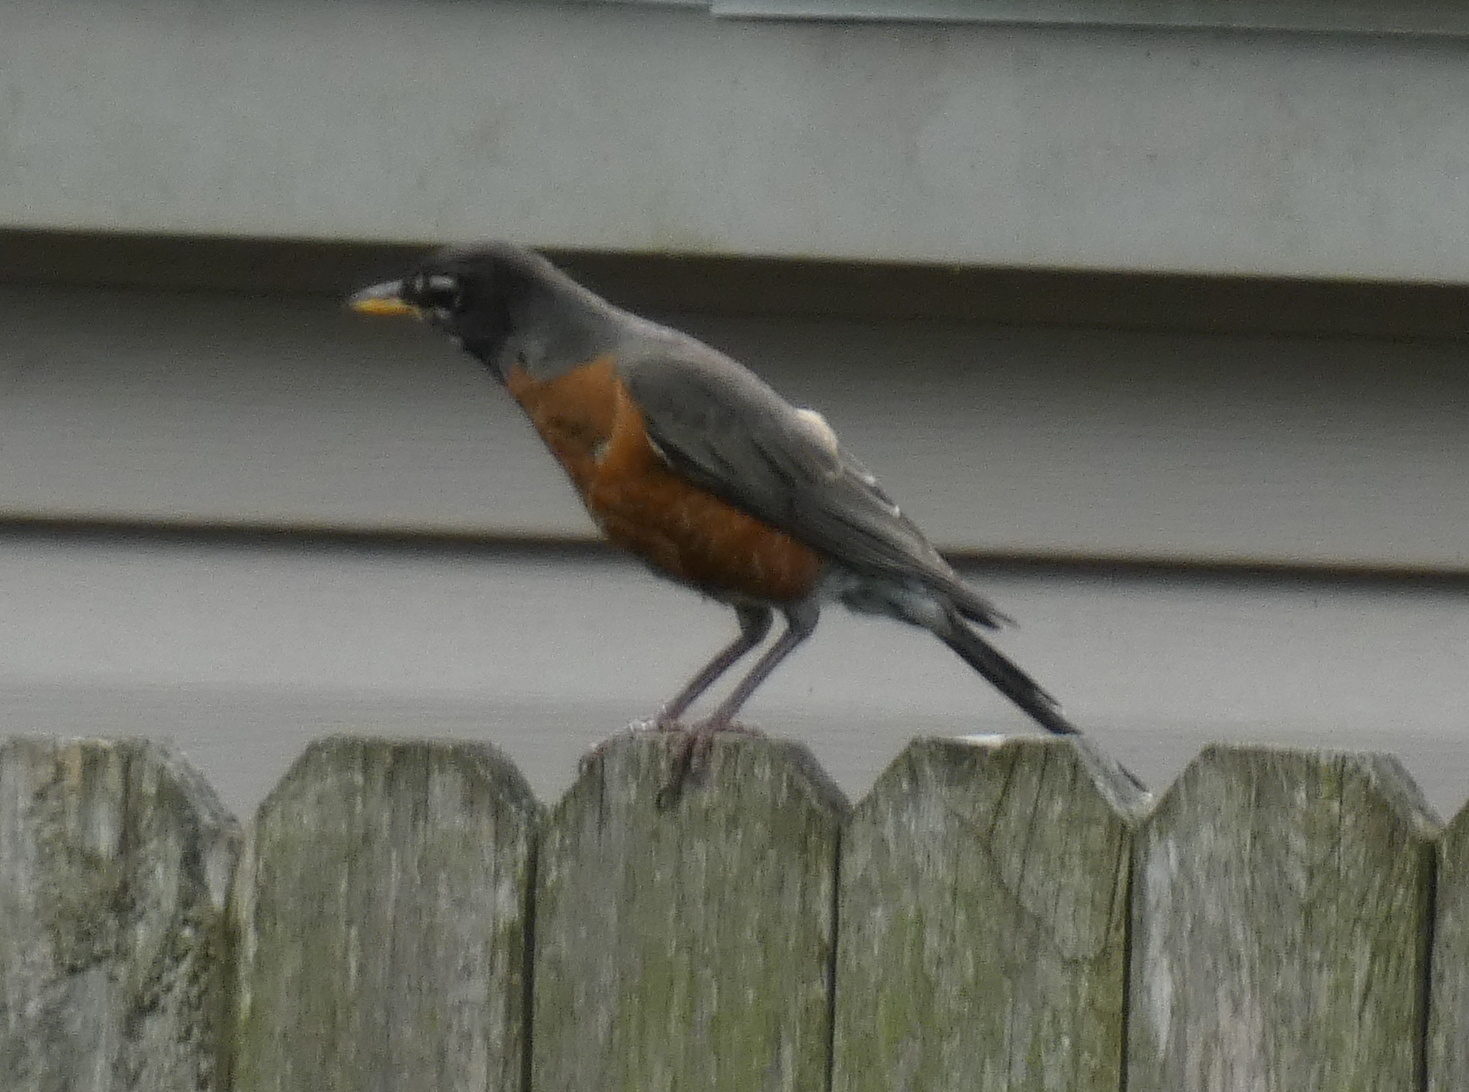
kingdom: Animalia
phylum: Chordata
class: Aves
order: Passeriformes
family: Turdidae
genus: Turdus
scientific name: Turdus migratorius
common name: American robin
